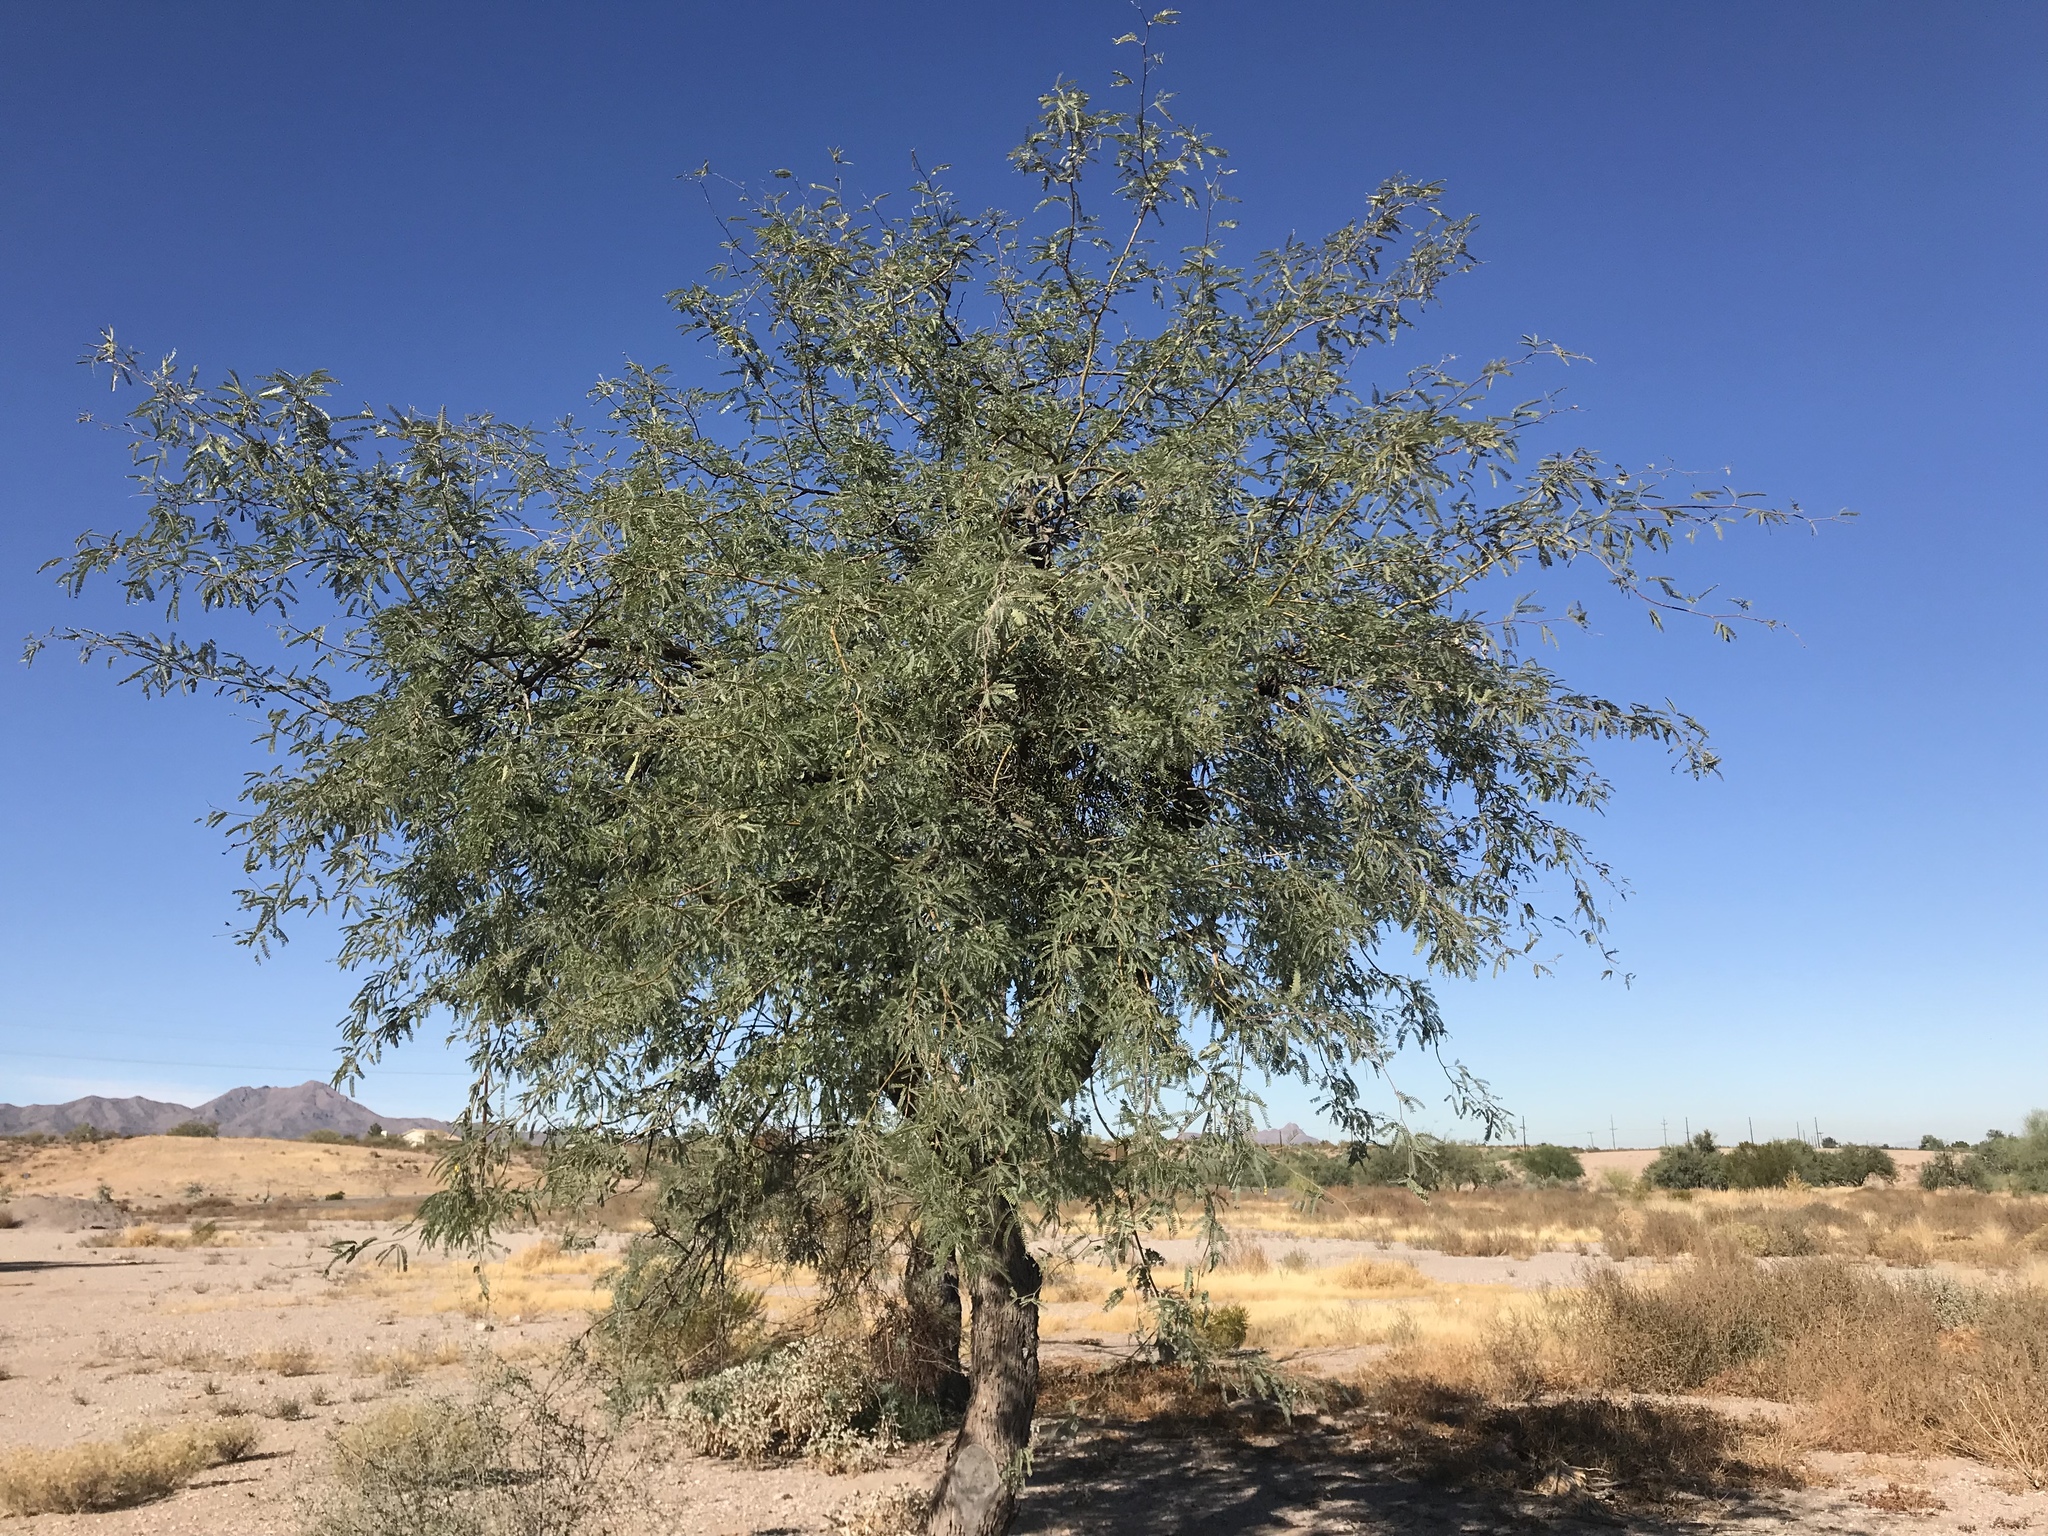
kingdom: Plantae
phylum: Tracheophyta
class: Magnoliopsida
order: Fabales
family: Fabaceae
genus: Prosopis
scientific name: Prosopis velutina
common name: Velvet mesquite
